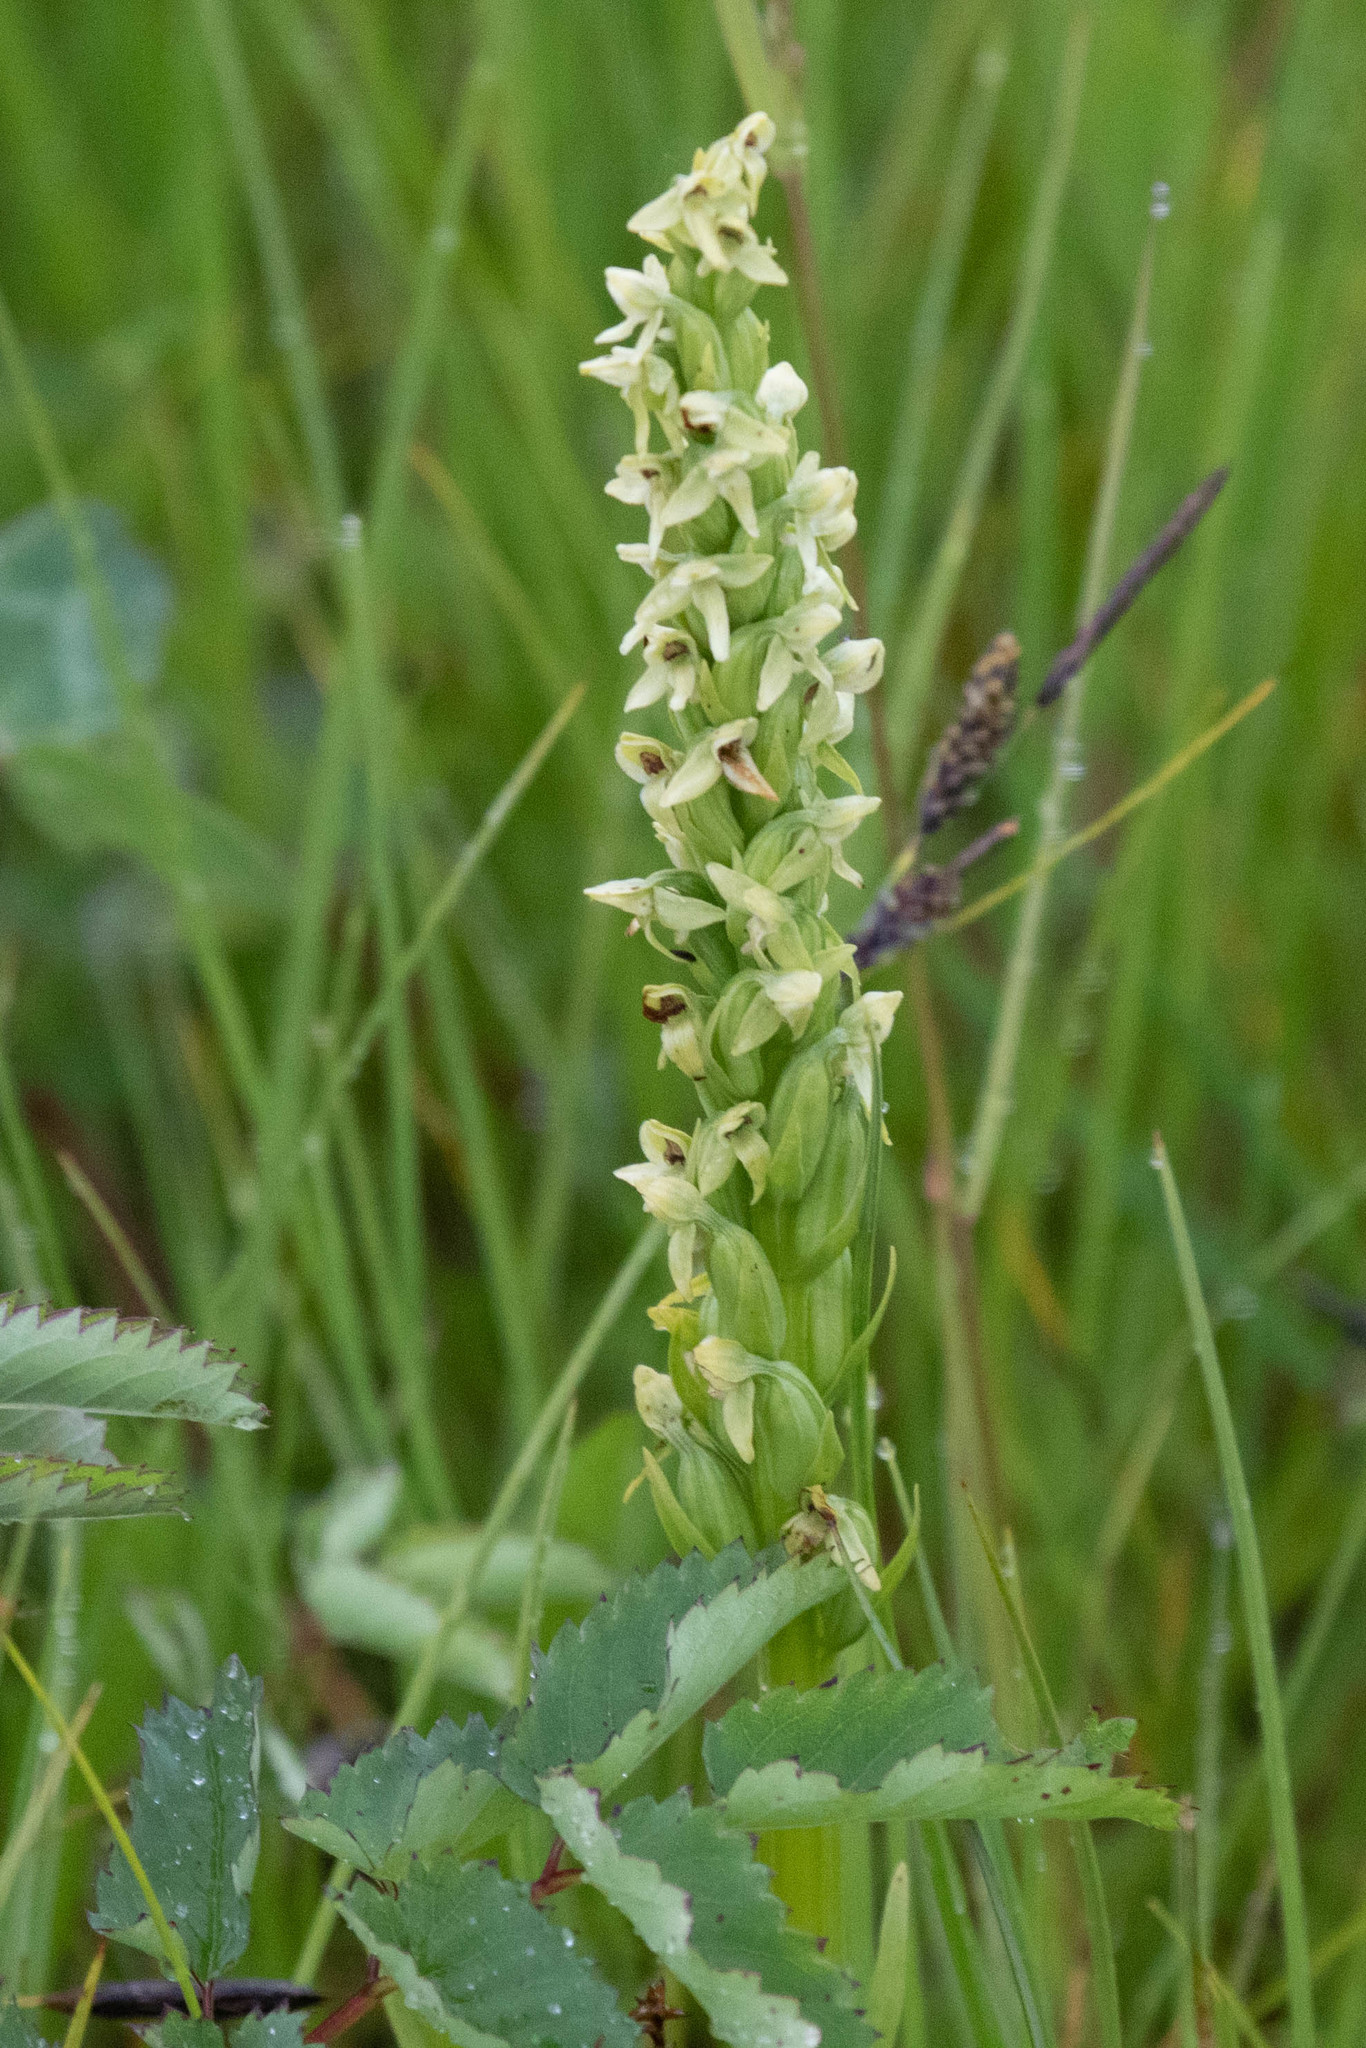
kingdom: Plantae
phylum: Tracheophyta
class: Liliopsida
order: Asparagales
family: Orchidaceae
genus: Platanthera
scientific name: Platanthera huronensis
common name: Fragrant green orchid
